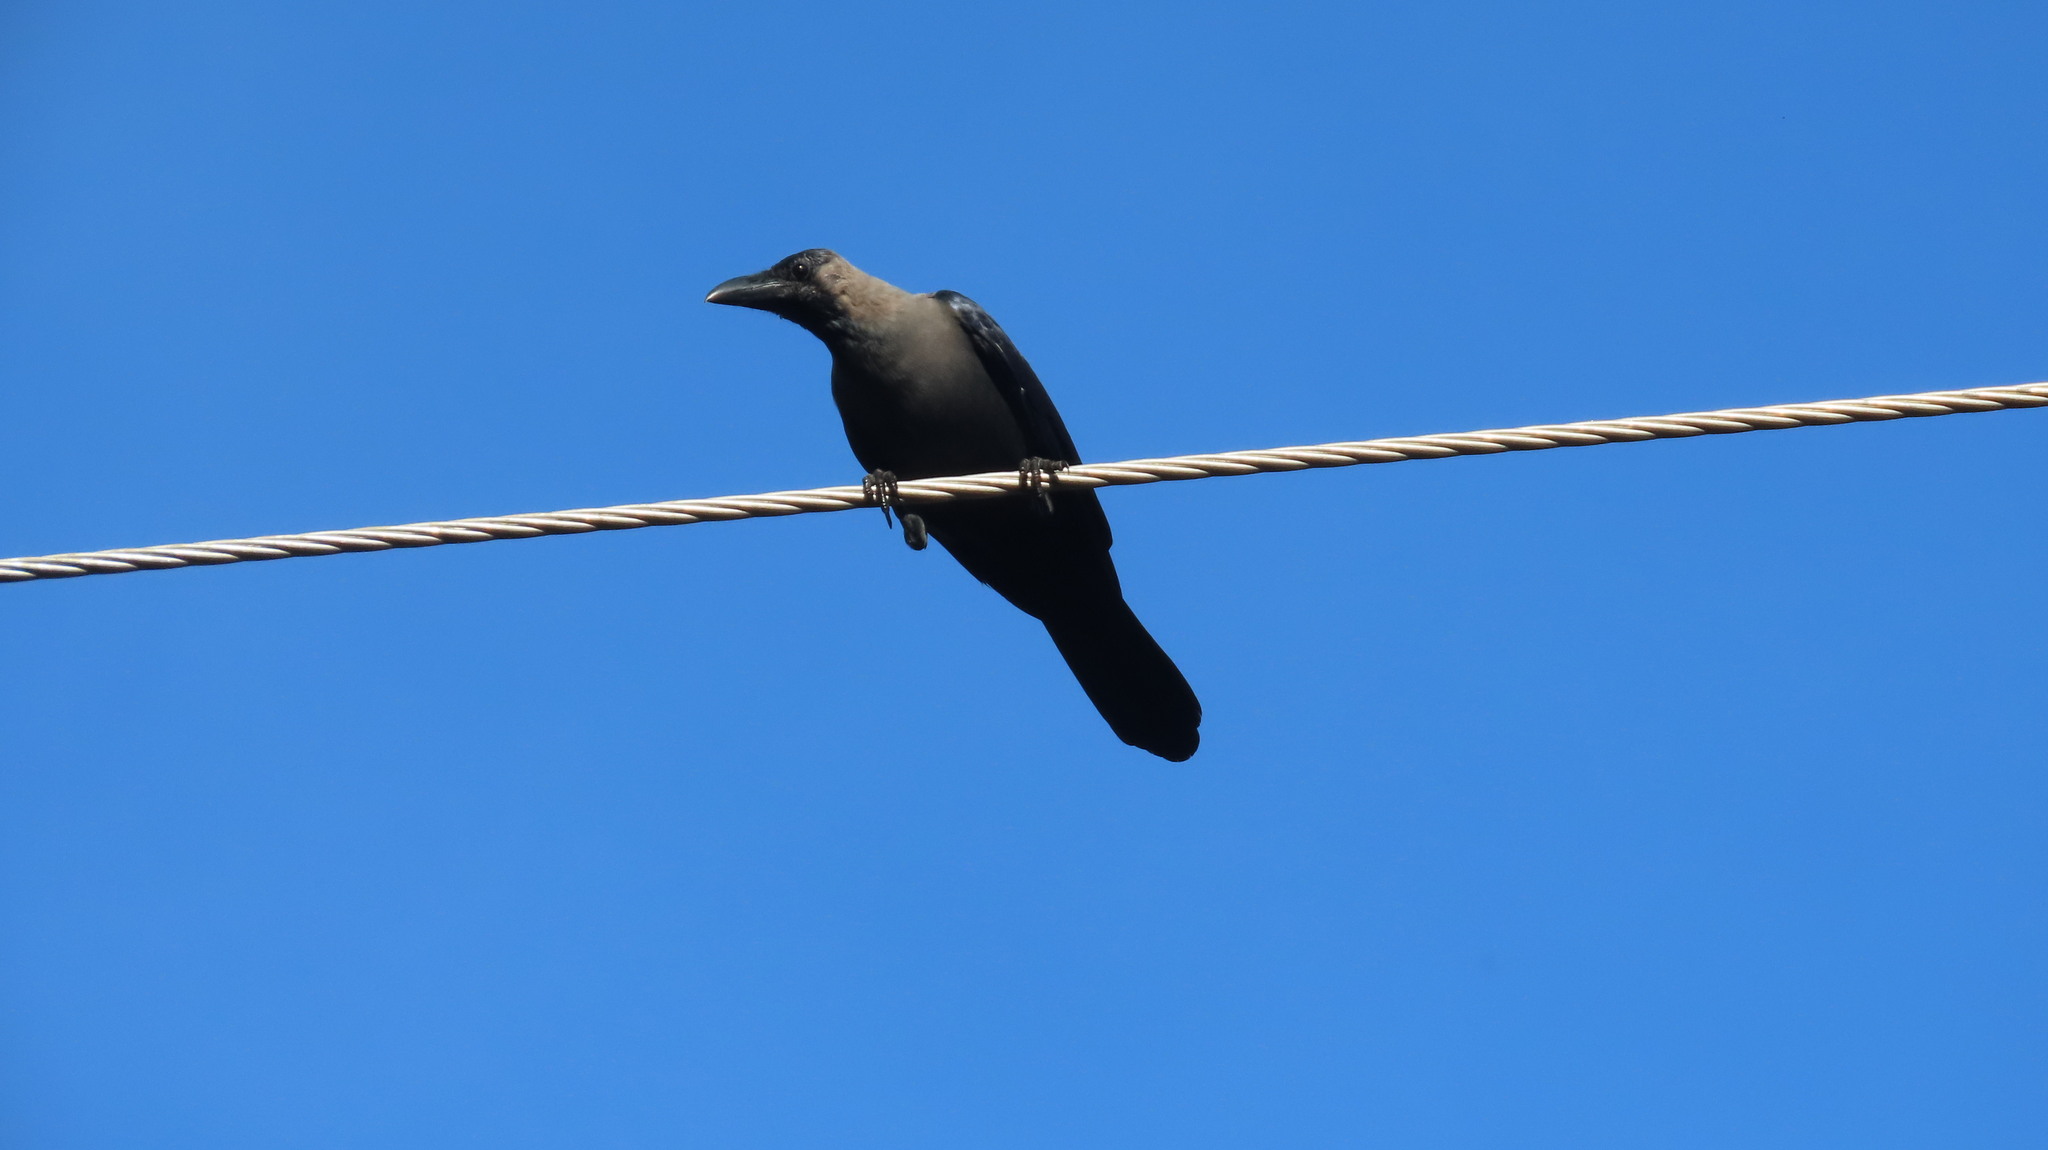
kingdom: Animalia
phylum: Chordata
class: Aves
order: Passeriformes
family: Corvidae
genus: Corvus
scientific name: Corvus splendens
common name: House crow
